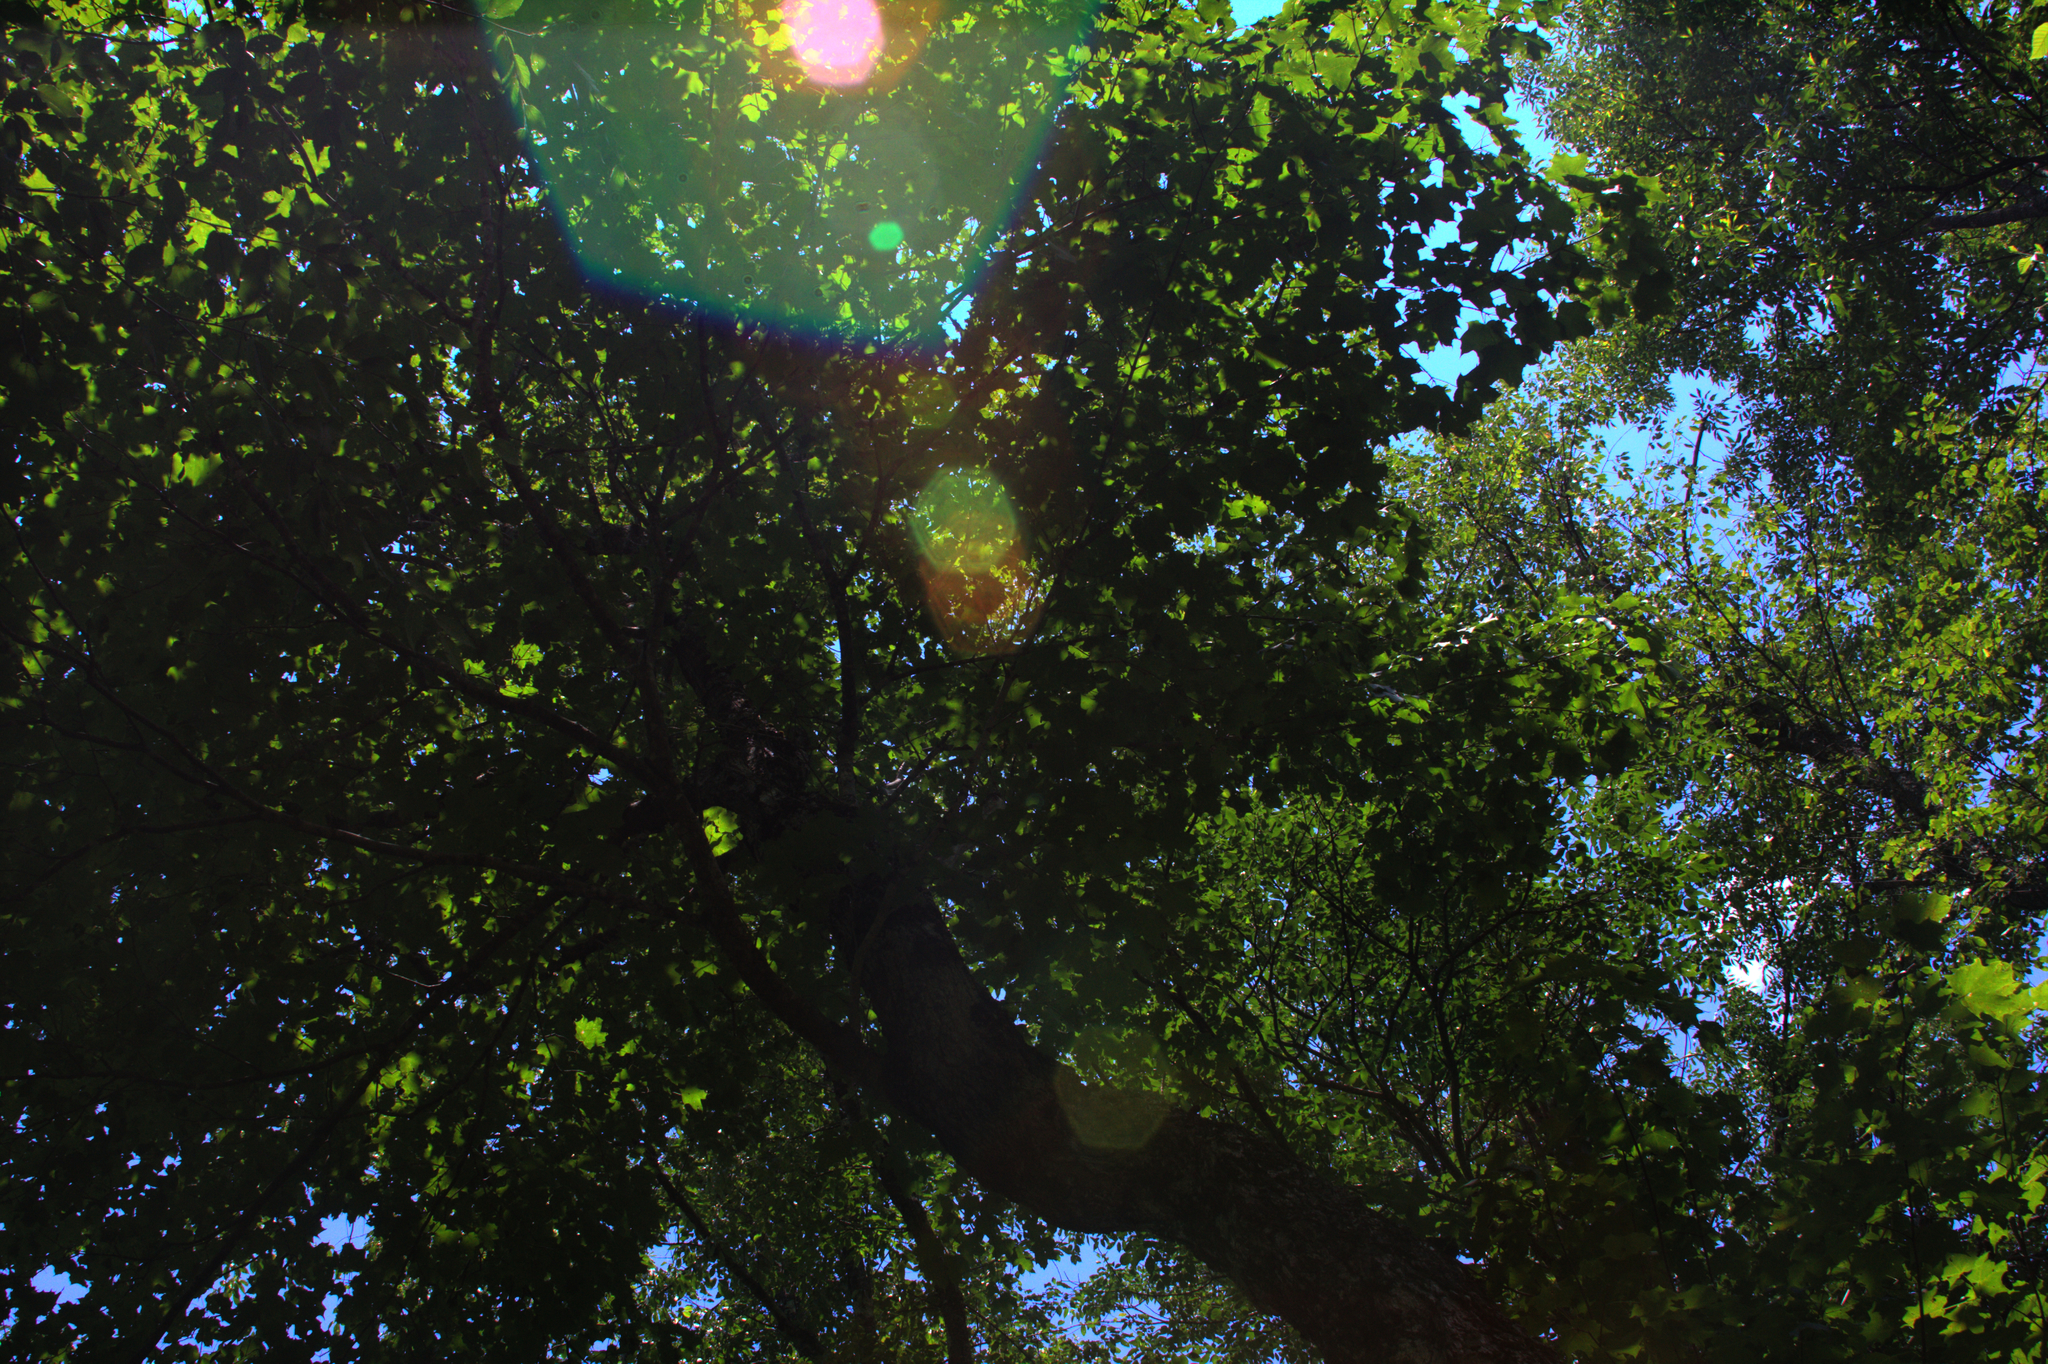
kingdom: Plantae
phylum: Tracheophyta
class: Magnoliopsida
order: Sapindales
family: Sapindaceae
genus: Acer
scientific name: Acer saccharum
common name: Sugar maple
